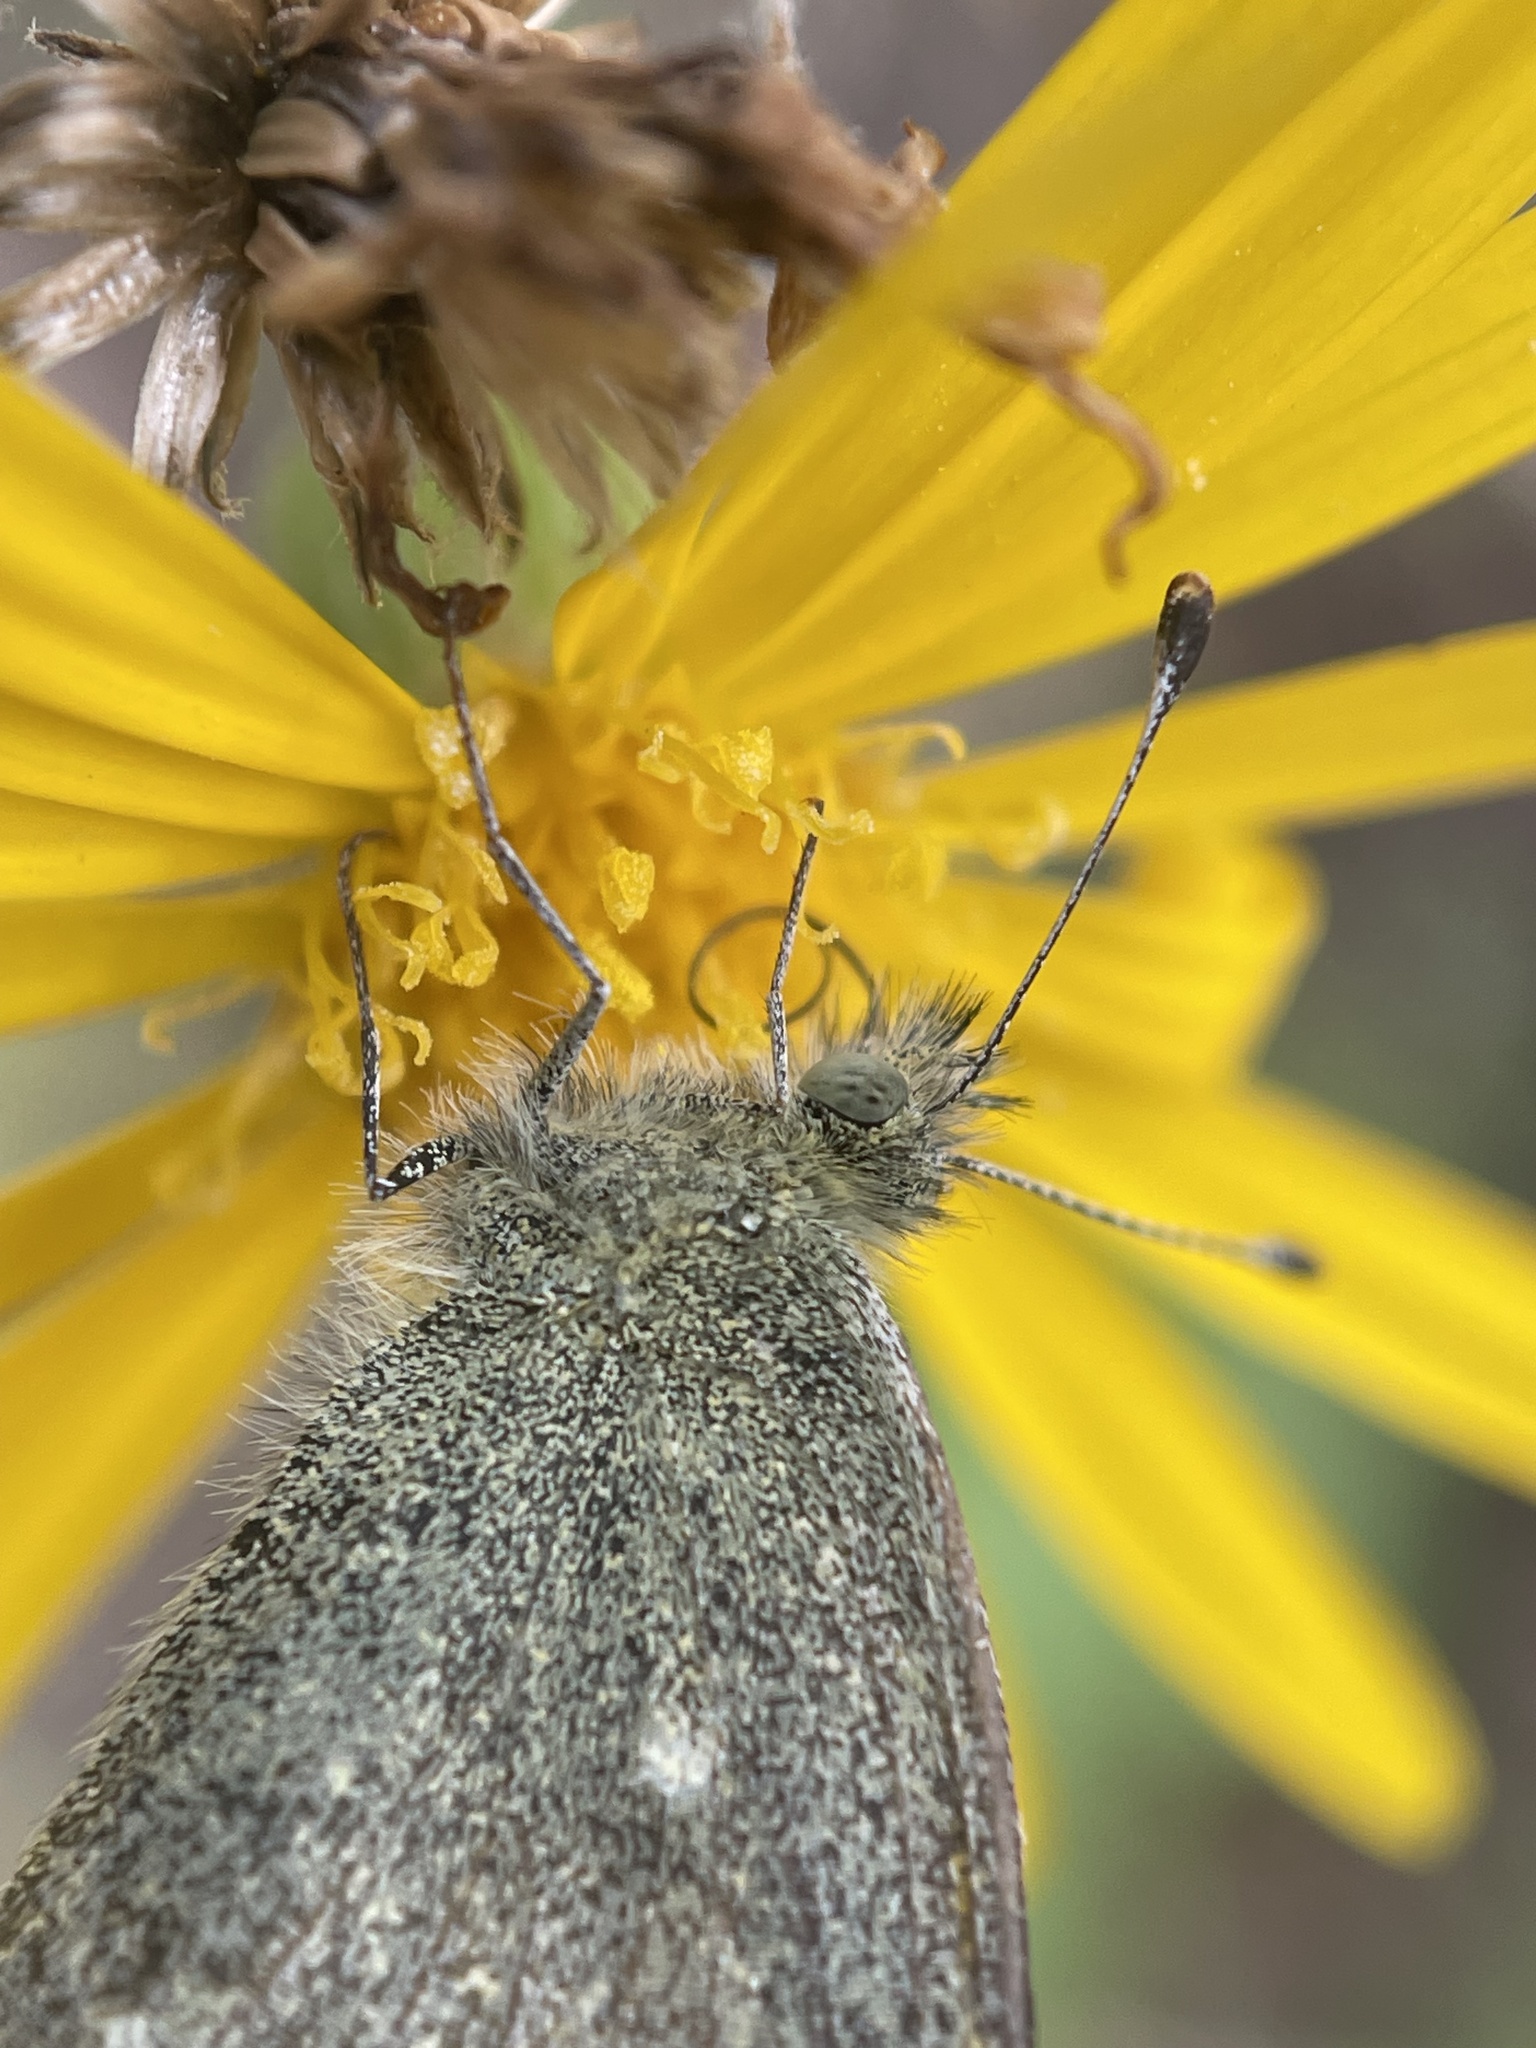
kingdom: Animalia
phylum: Arthropoda
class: Insecta
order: Lepidoptera
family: Pieridae
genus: Nathalis
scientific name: Nathalis iole
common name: Dainty sulphur
